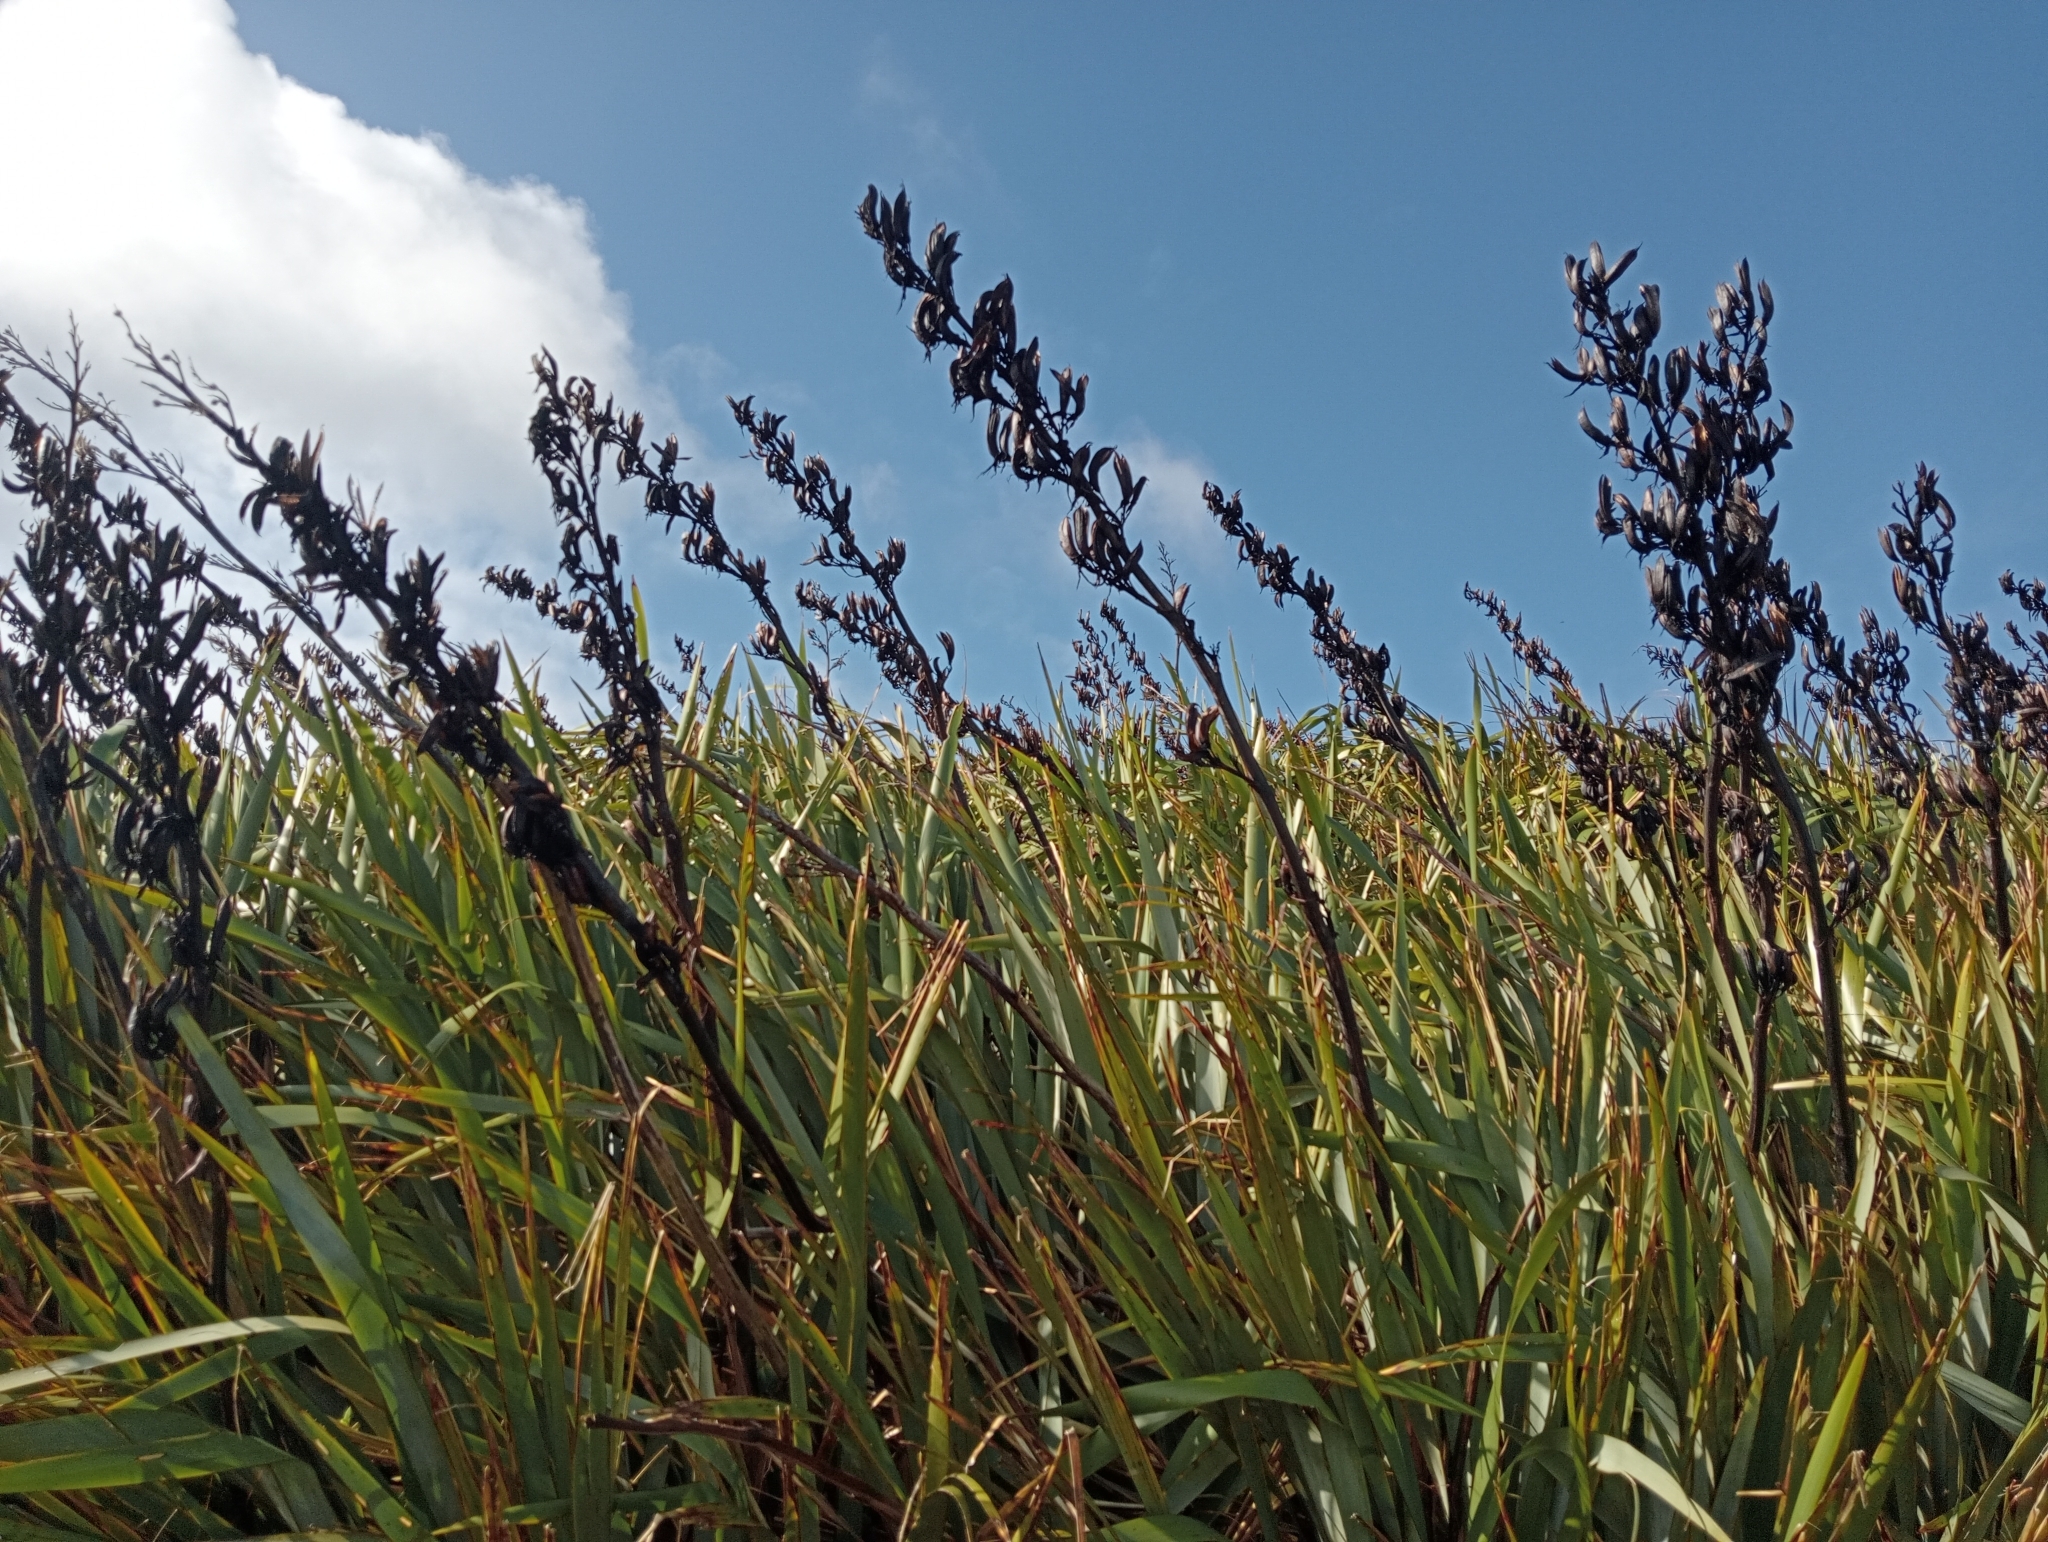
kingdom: Plantae
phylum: Tracheophyta
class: Liliopsida
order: Asparagales
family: Asphodelaceae
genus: Phormium
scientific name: Phormium tenax
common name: New zealand flax
